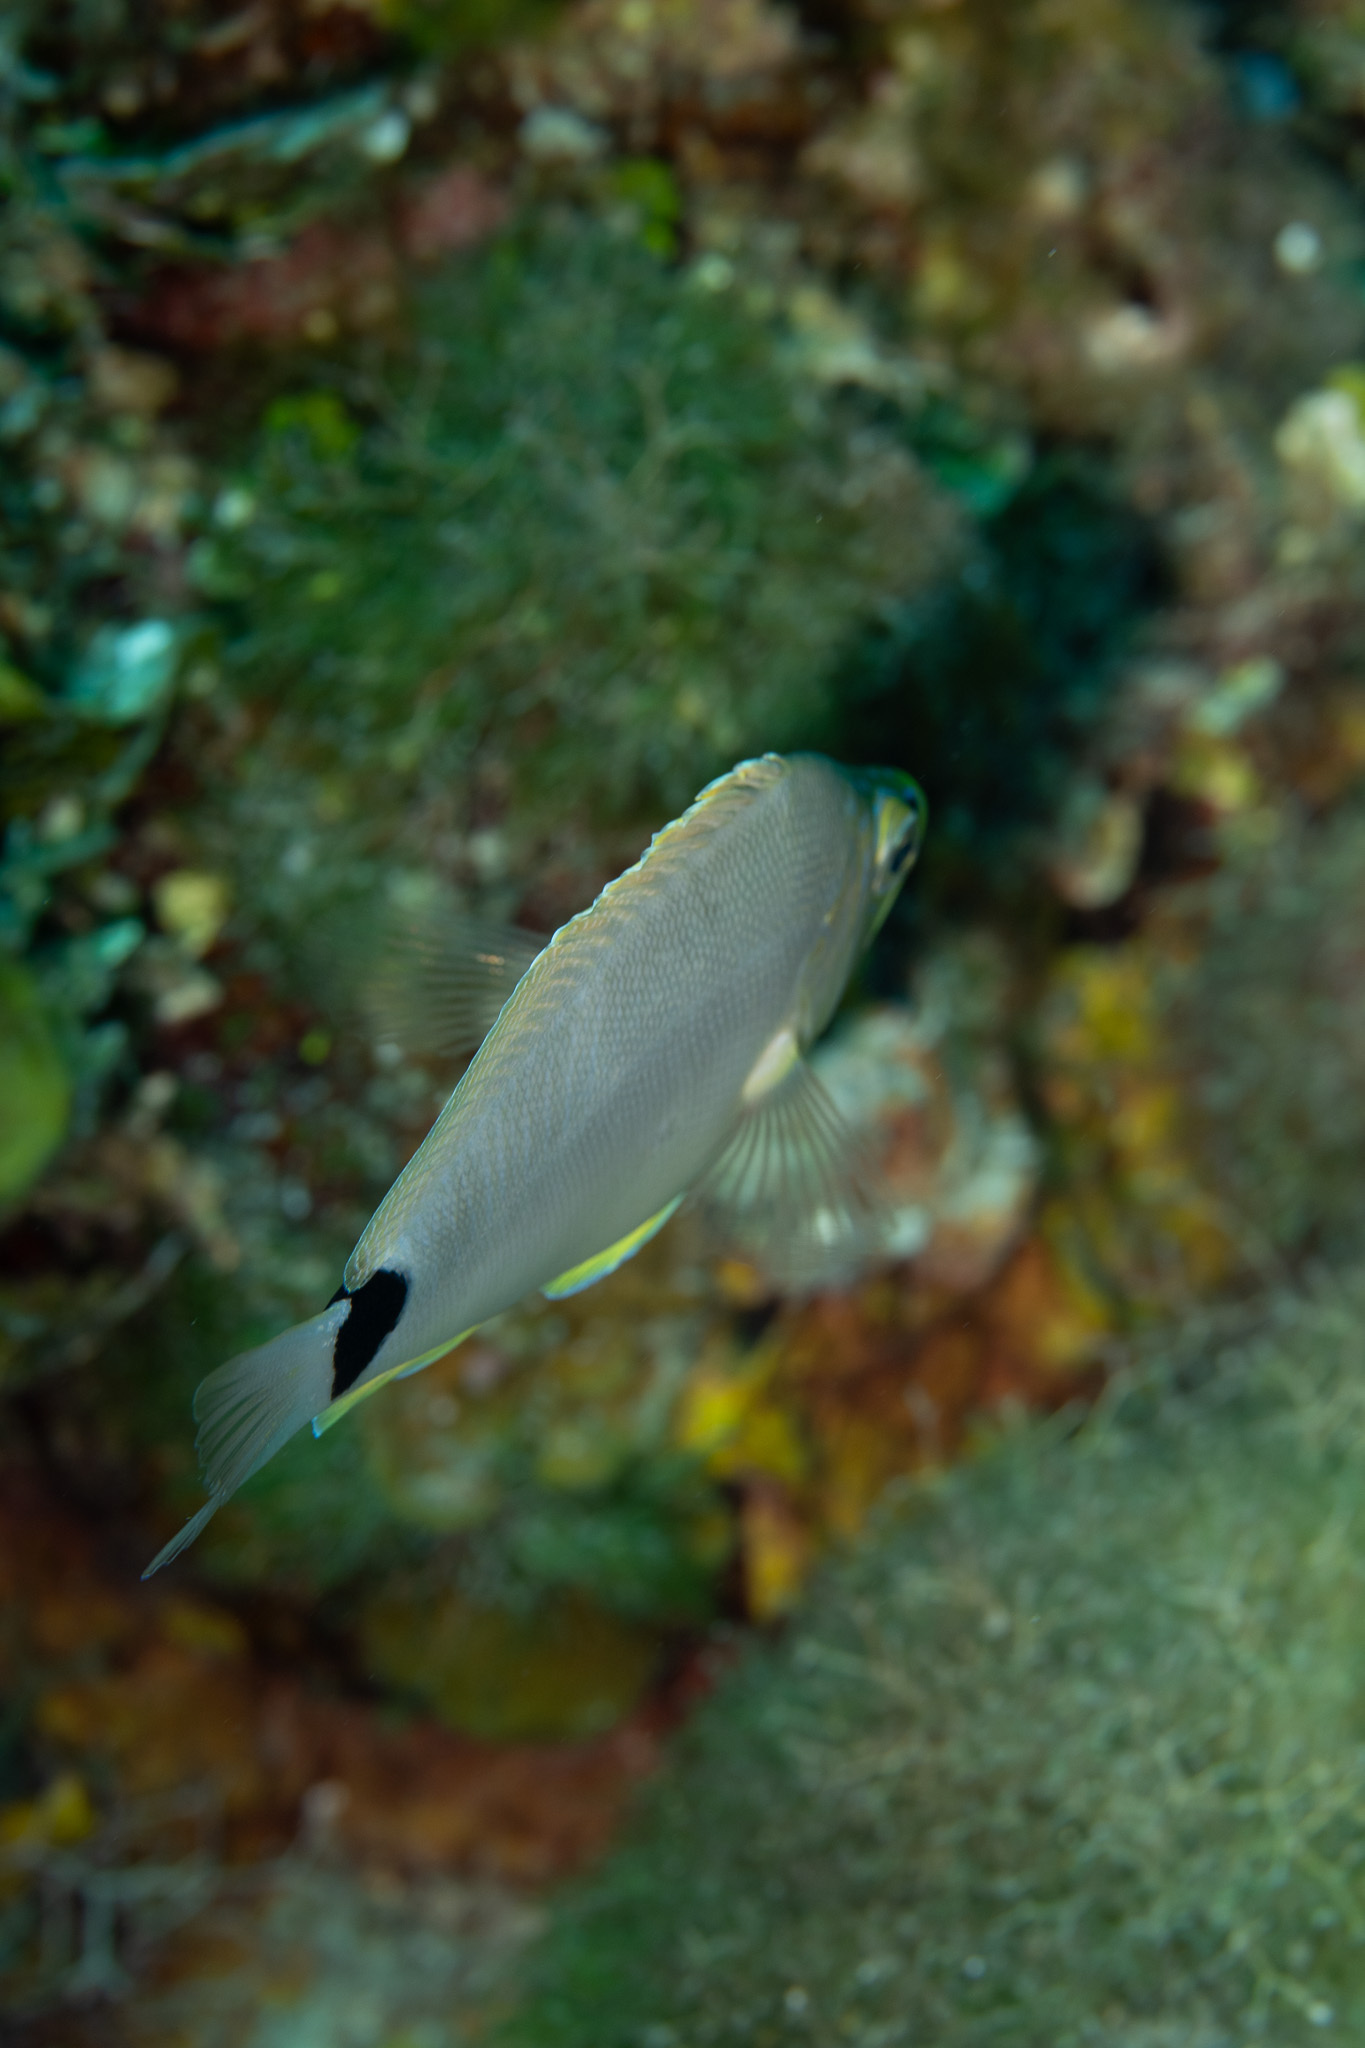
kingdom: Animalia
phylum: Chordata
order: Perciformes
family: Serranidae
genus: Hypoplectrus
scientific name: Hypoplectrus unicolor
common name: Butter hamlet
